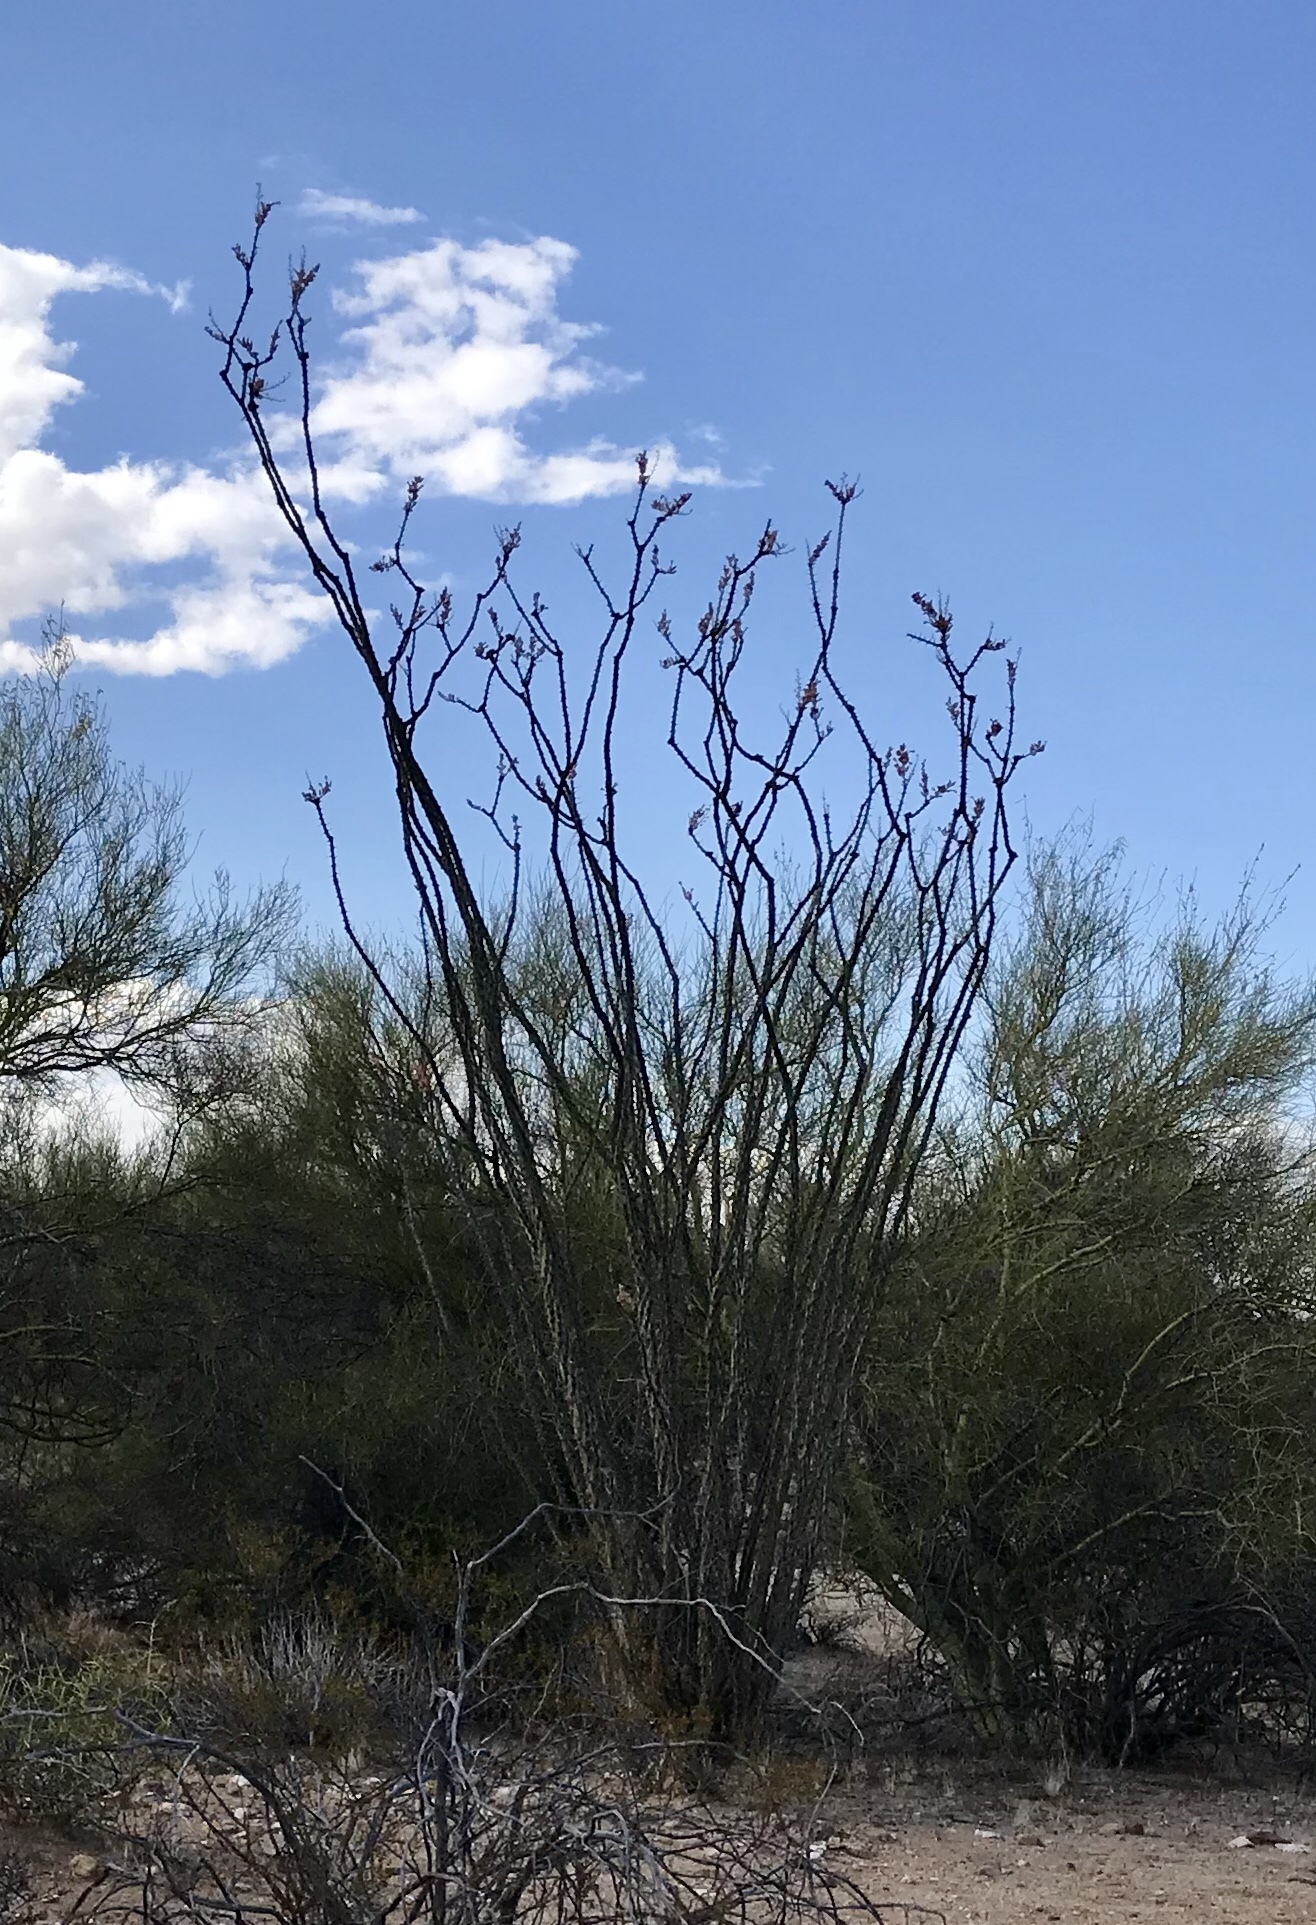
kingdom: Plantae
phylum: Tracheophyta
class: Magnoliopsida
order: Ericales
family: Fouquieriaceae
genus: Fouquieria
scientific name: Fouquieria splendens
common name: Vine-cactus
